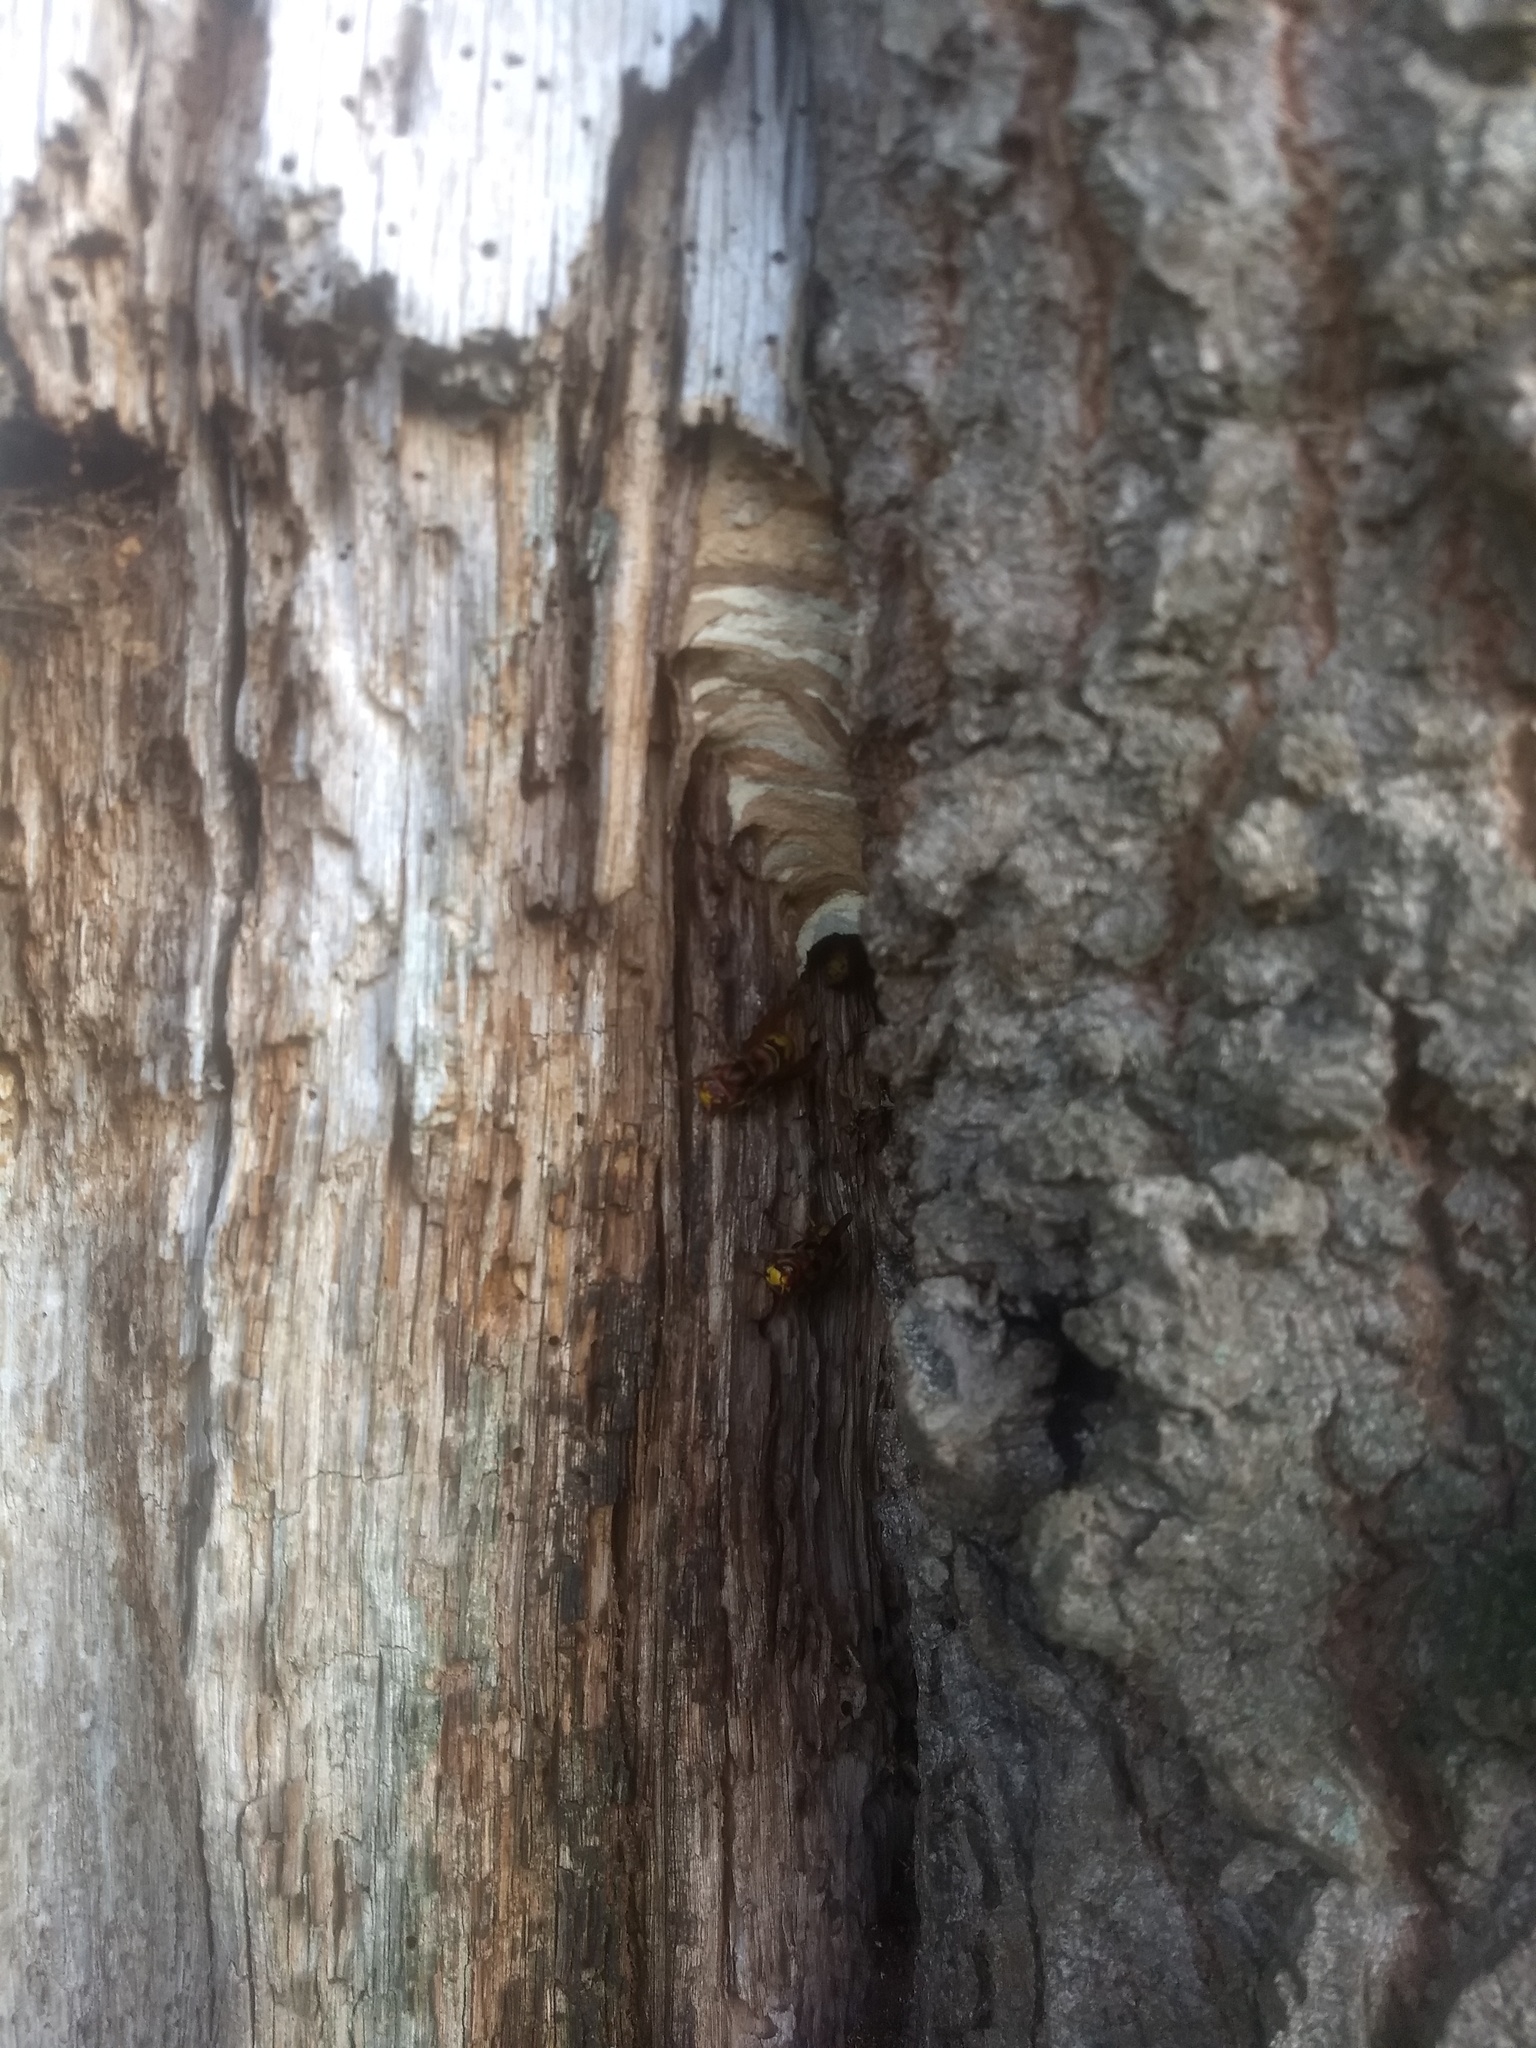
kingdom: Animalia
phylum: Arthropoda
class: Insecta
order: Hymenoptera
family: Vespidae
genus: Vespa
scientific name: Vespa crabro
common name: Hornet
